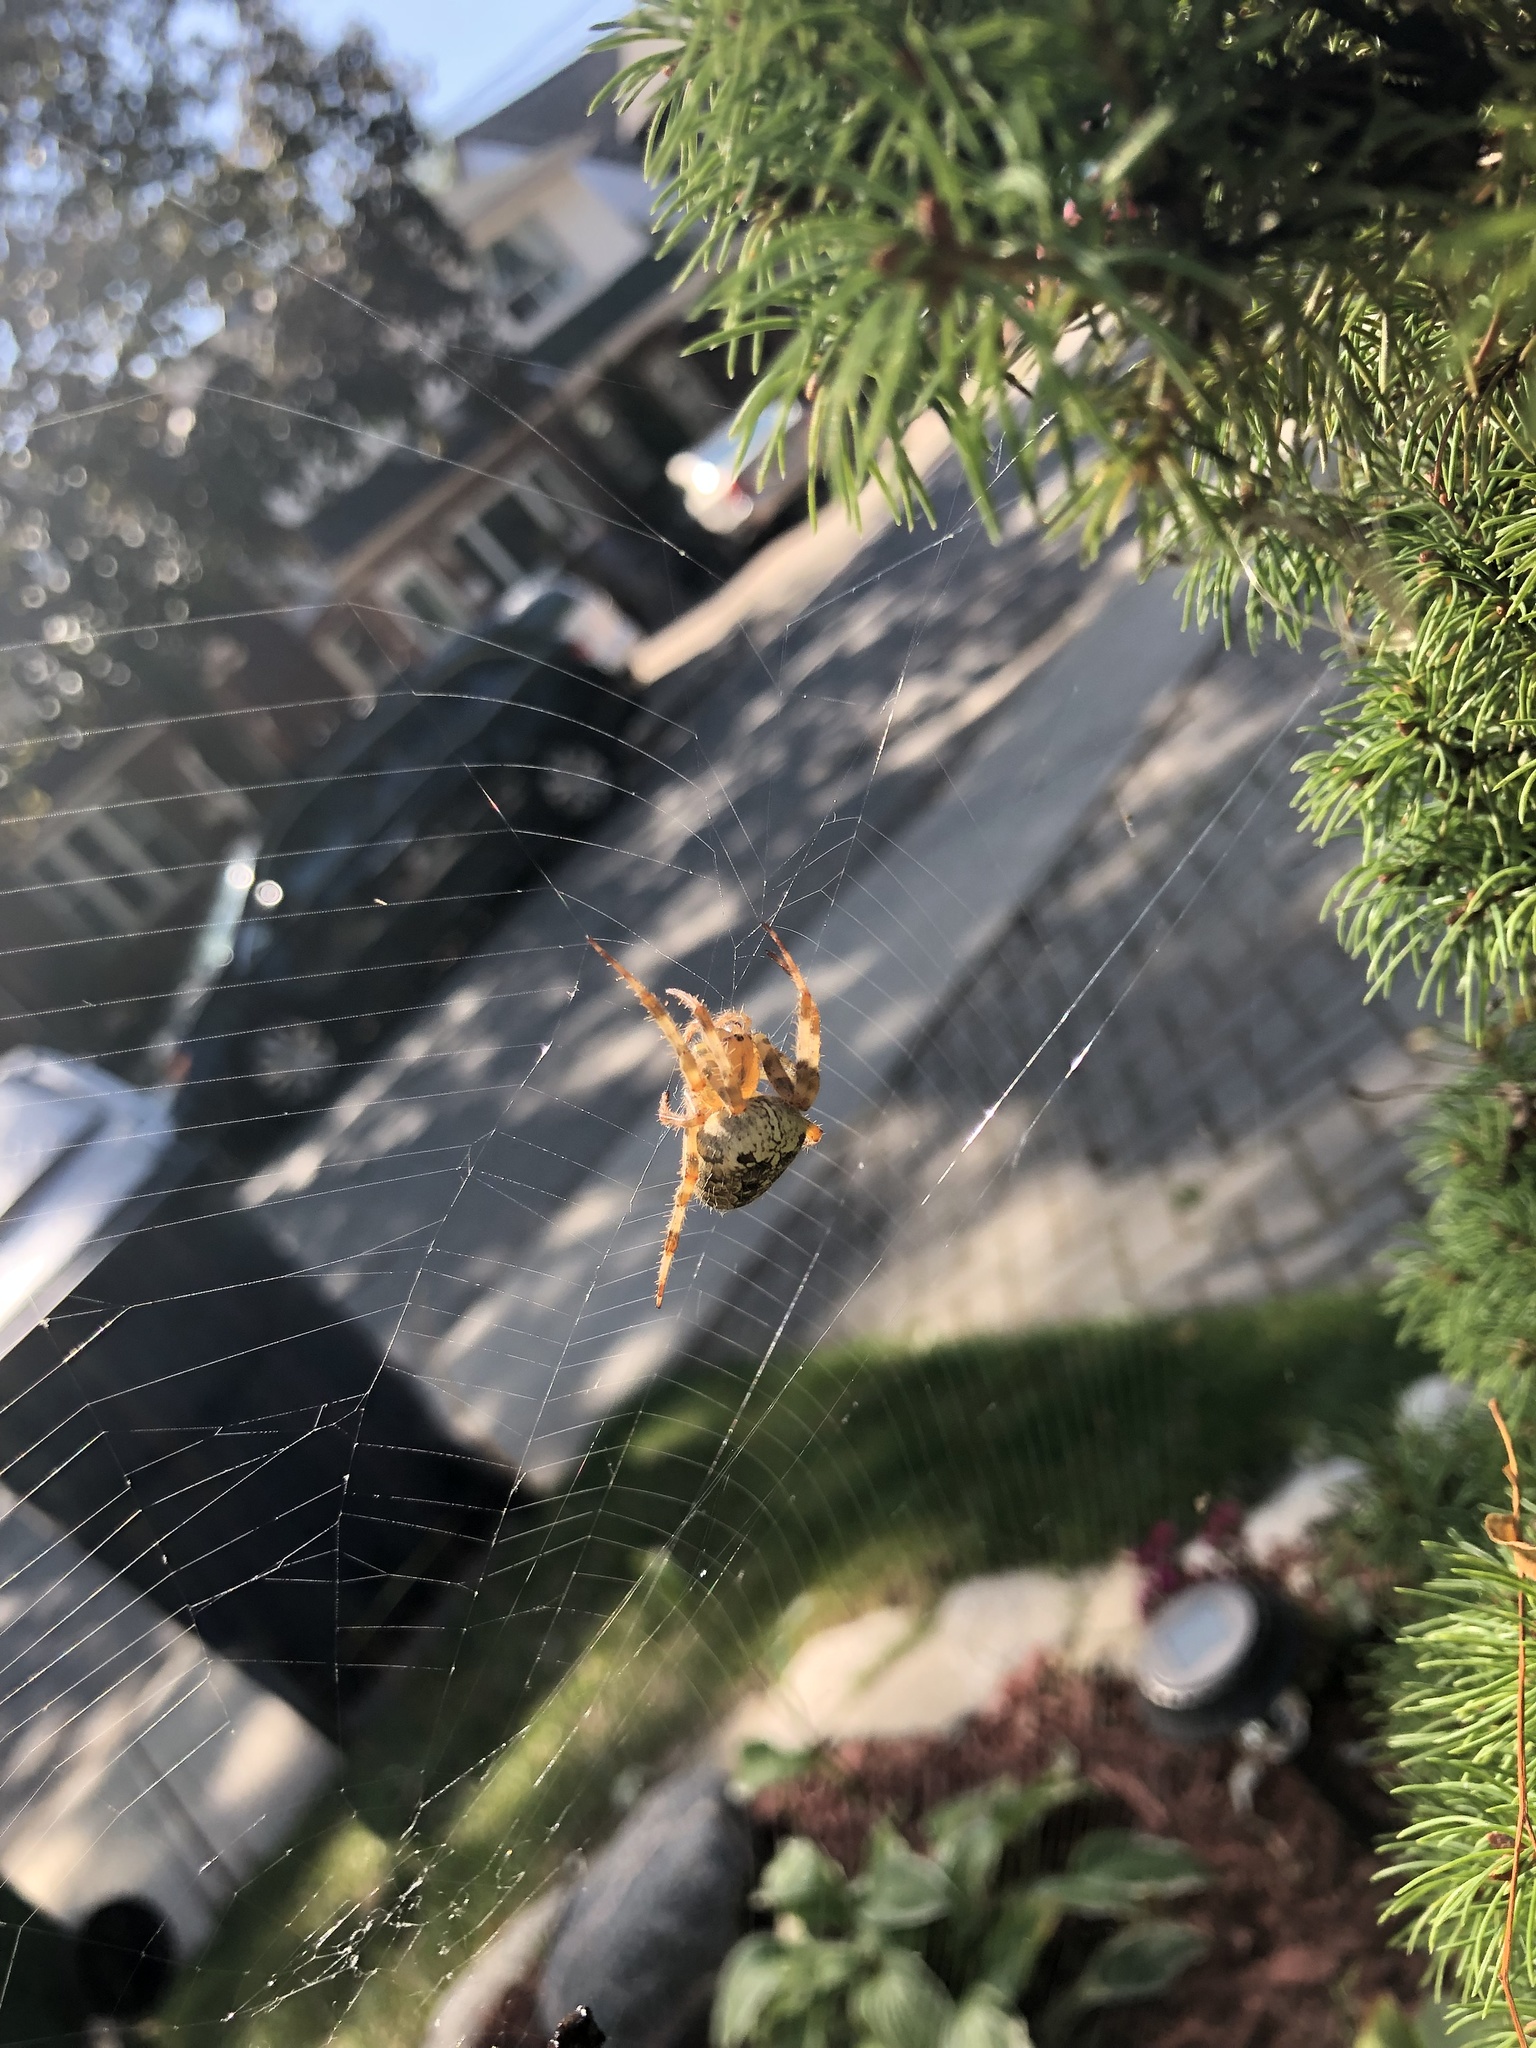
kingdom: Animalia
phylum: Arthropoda
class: Arachnida
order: Araneae
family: Araneidae
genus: Araneus
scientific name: Araneus diadematus
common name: Cross orbweaver
